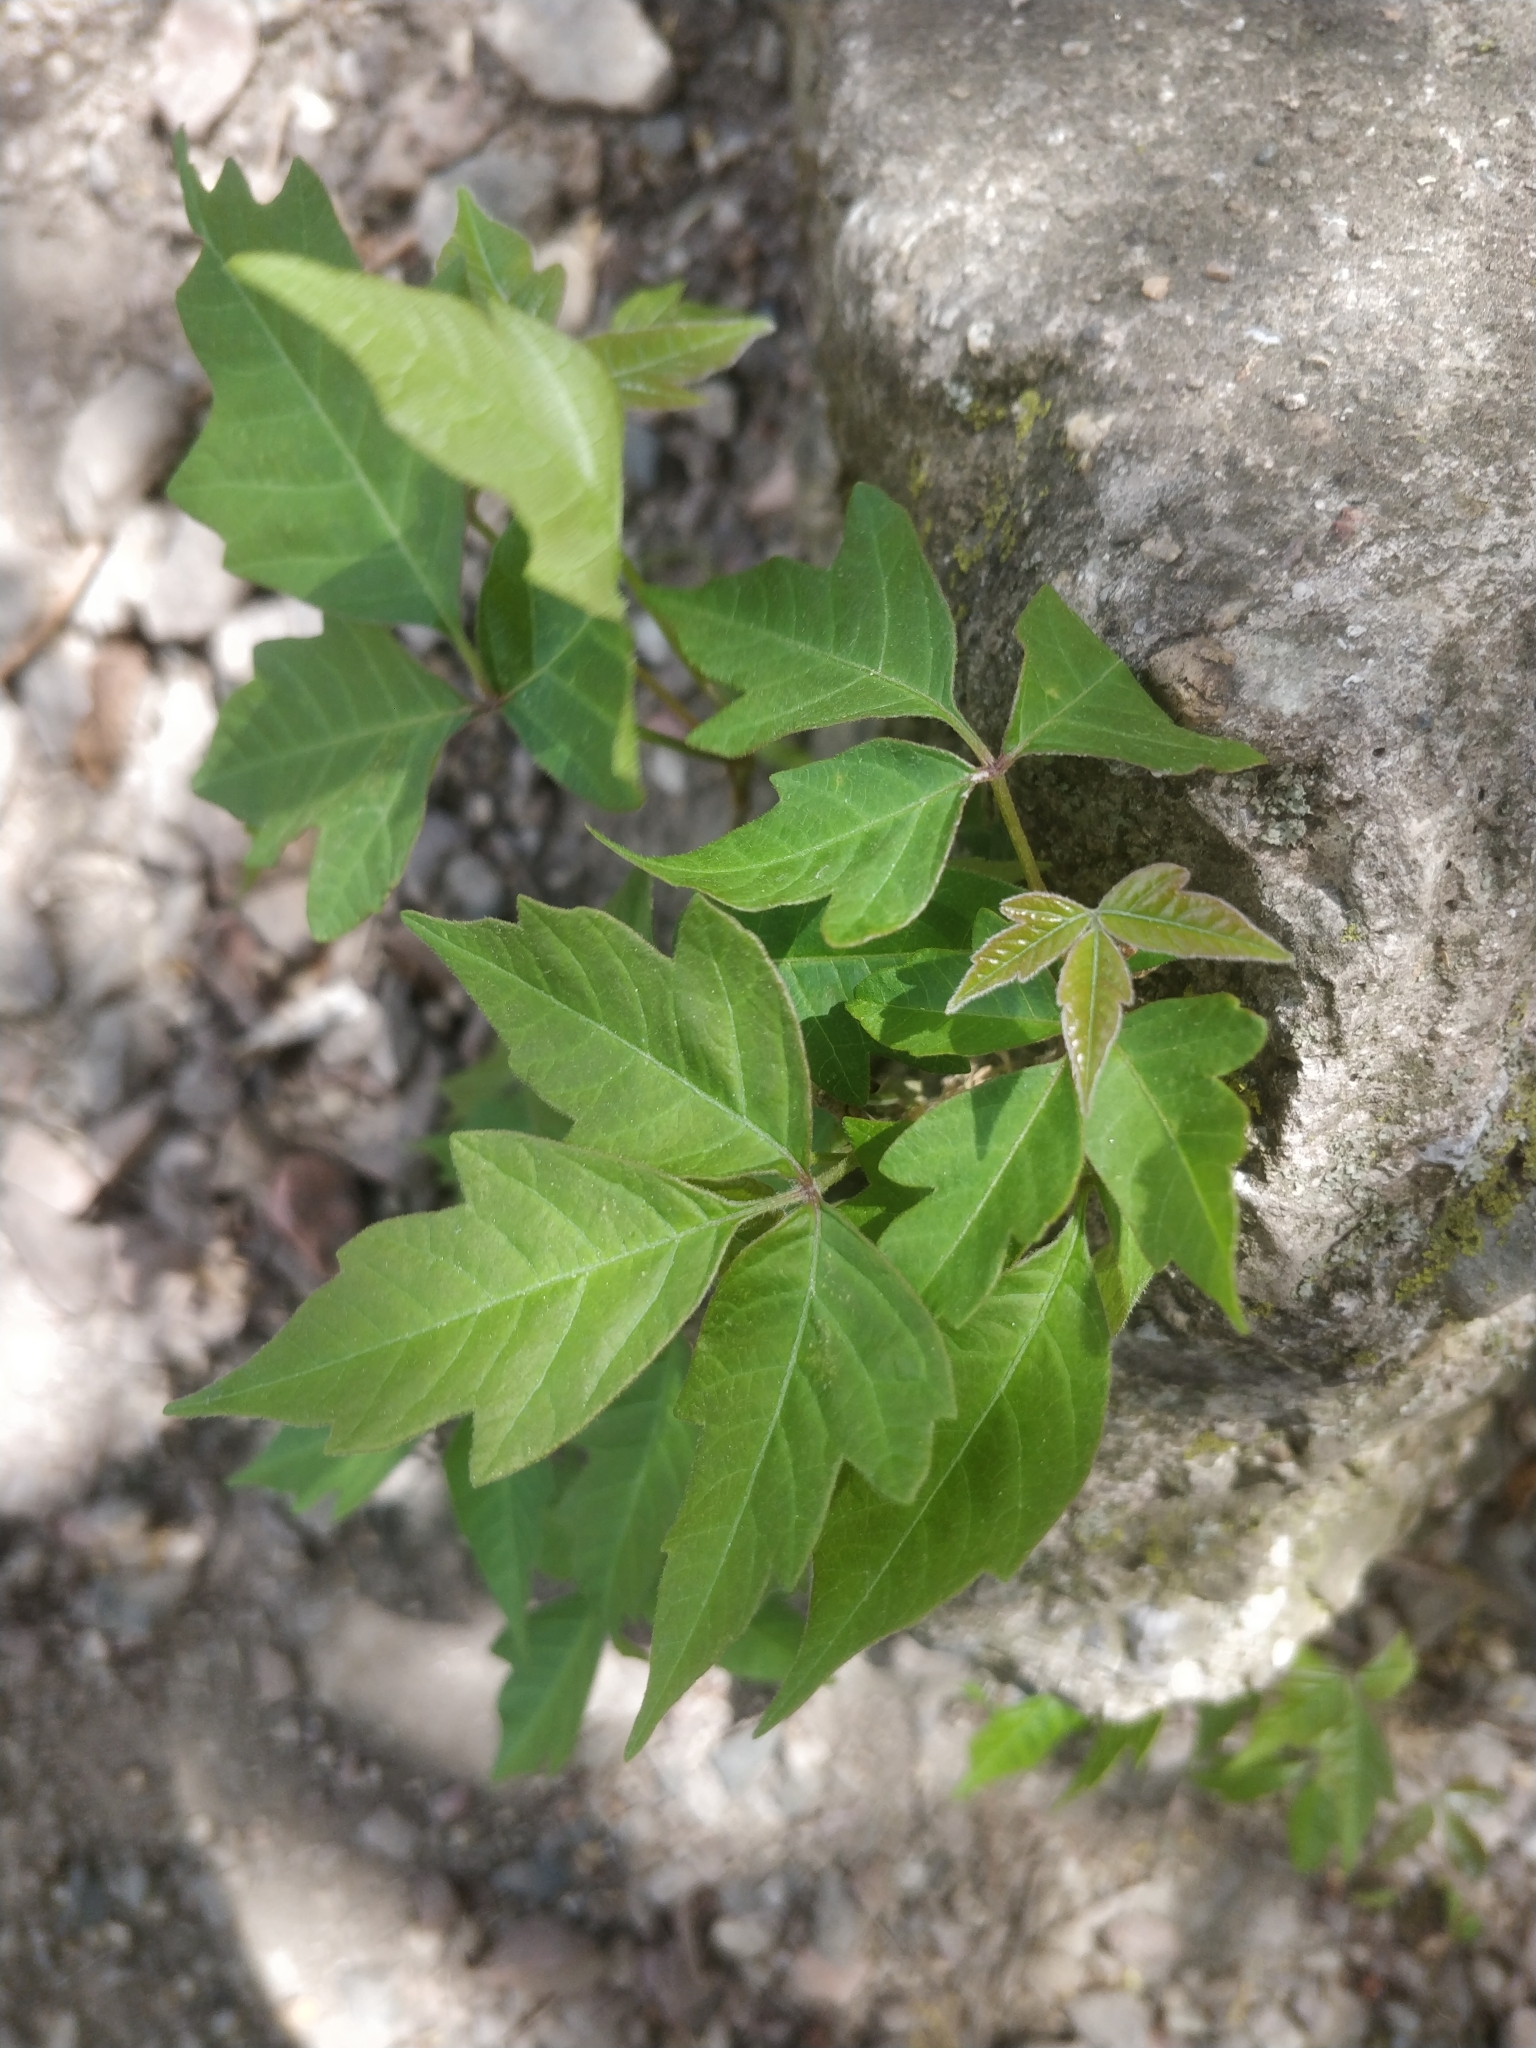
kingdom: Plantae
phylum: Tracheophyta
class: Magnoliopsida
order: Sapindales
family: Anacardiaceae
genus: Toxicodendron
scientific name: Toxicodendron radicans
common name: Poison ivy
